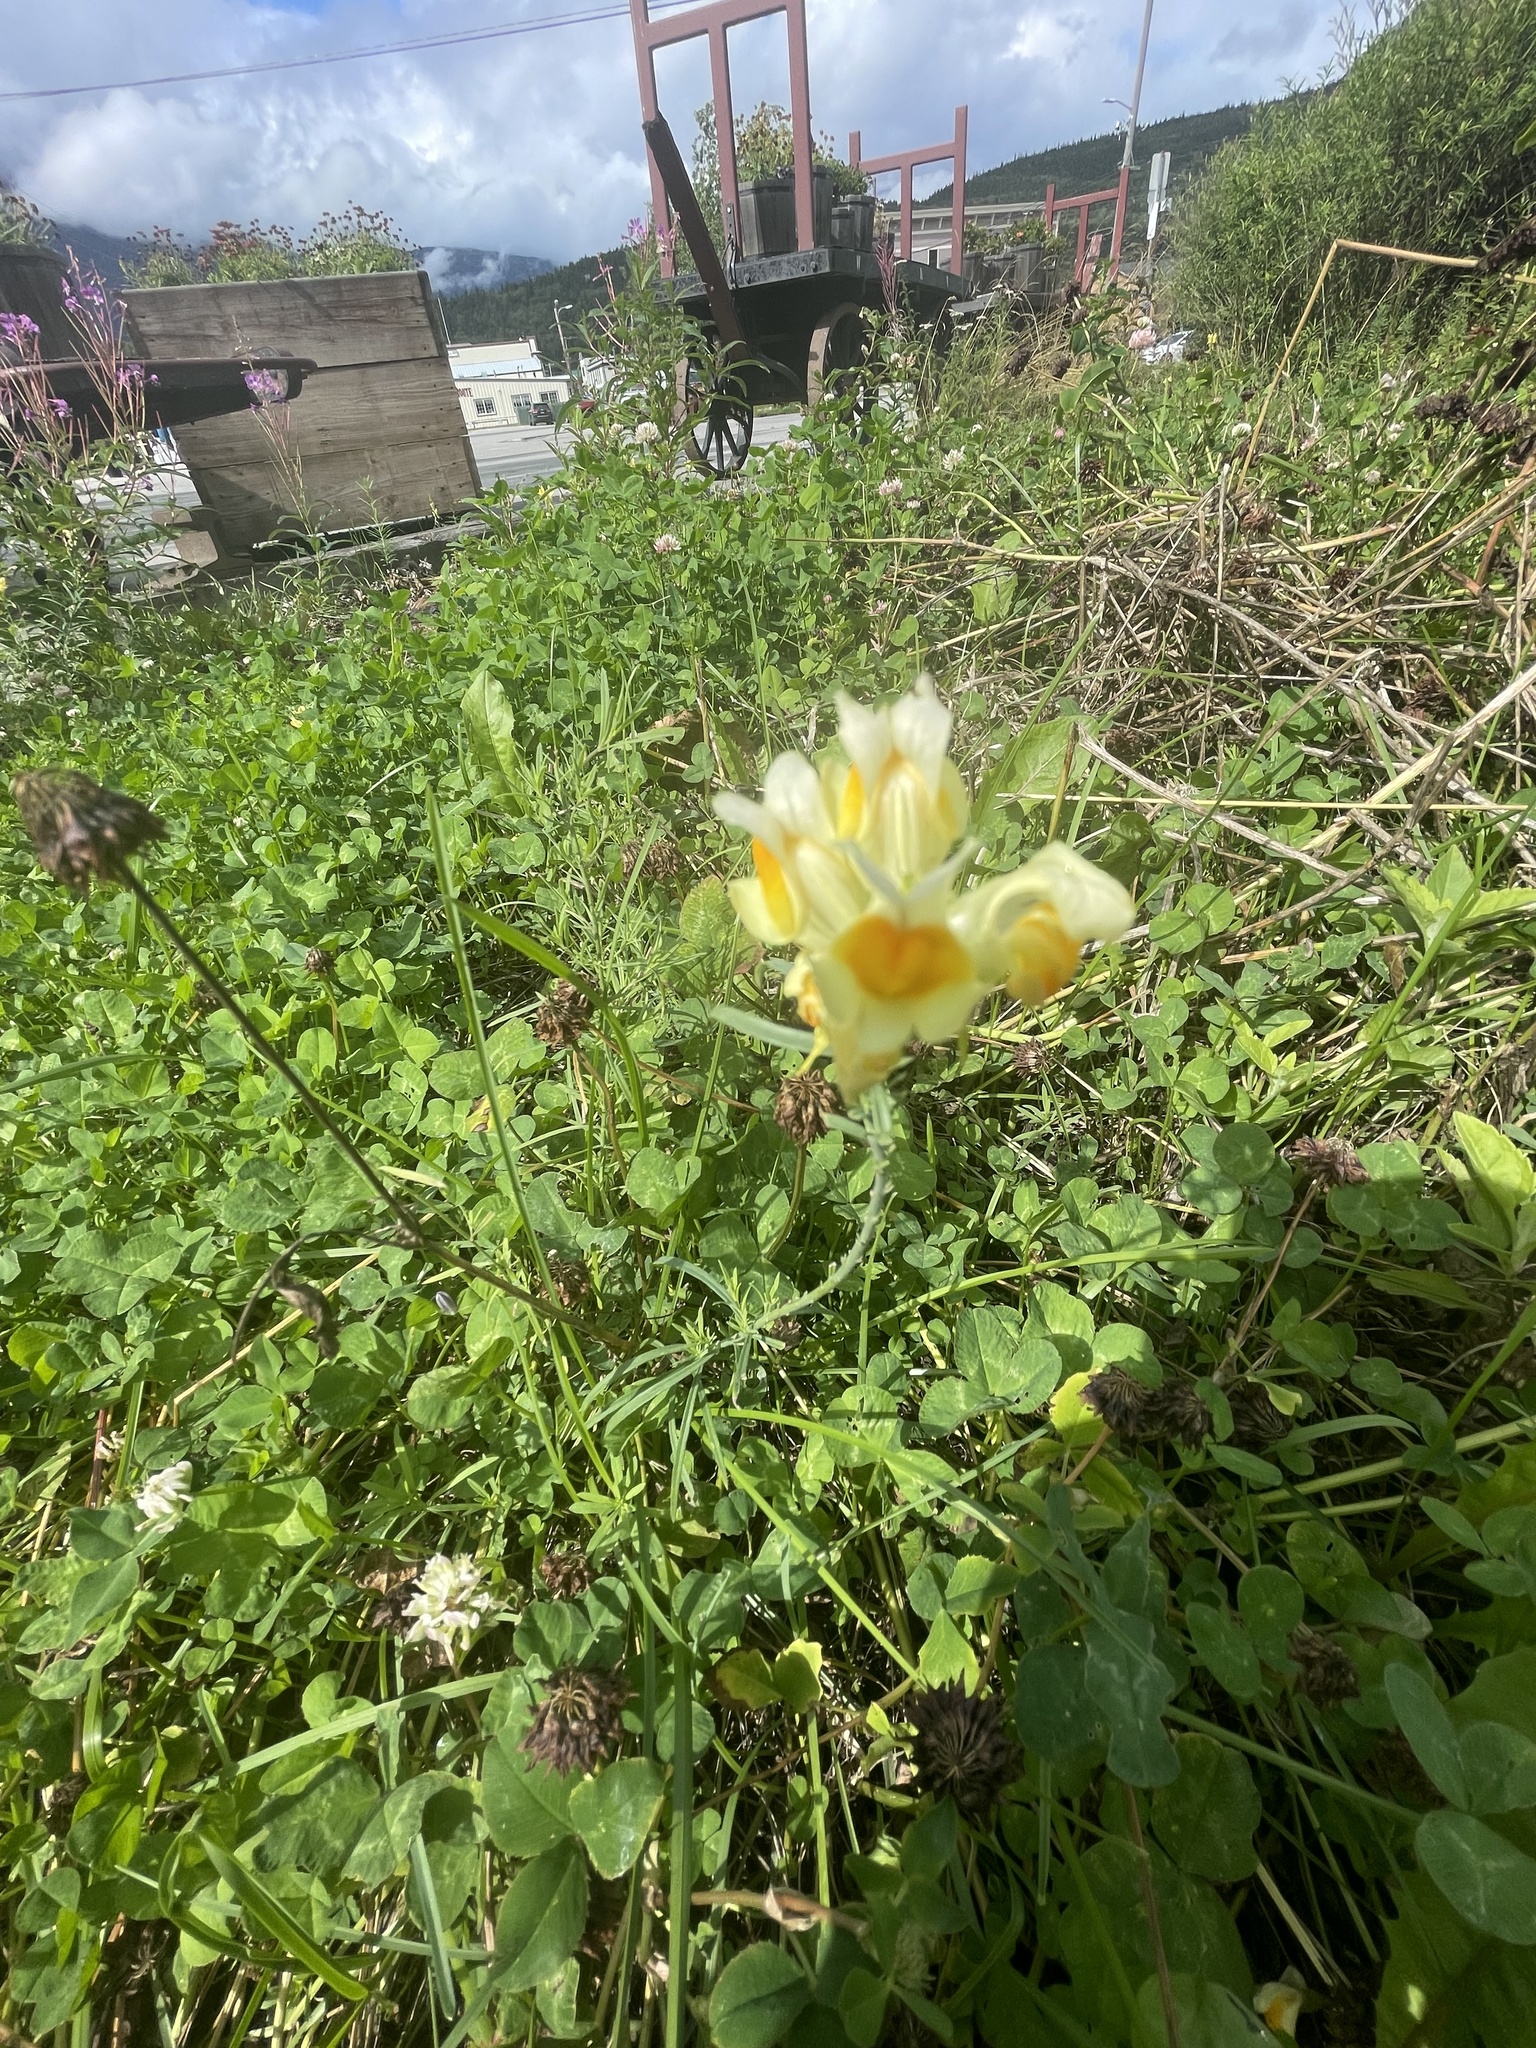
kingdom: Plantae
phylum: Tracheophyta
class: Magnoliopsida
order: Lamiales
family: Plantaginaceae
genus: Linaria
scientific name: Linaria vulgaris
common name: Butter and eggs
